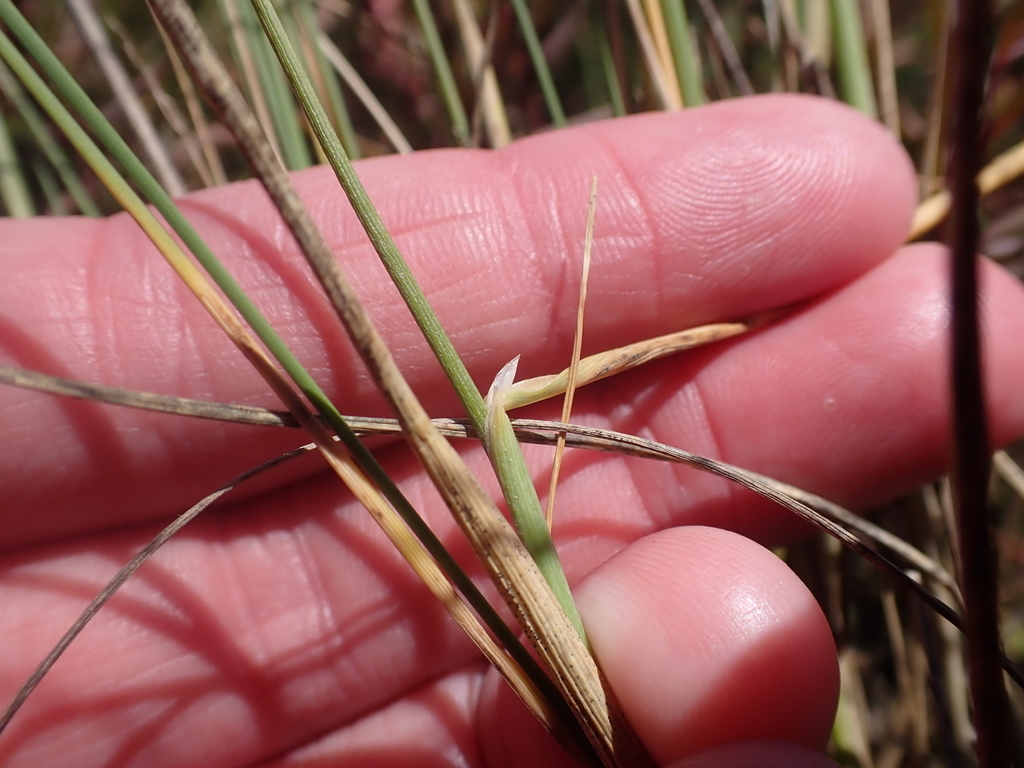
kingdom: Plantae
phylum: Tracheophyta
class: Liliopsida
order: Poales
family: Poaceae
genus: Puccinellia
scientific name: Puccinellia perlaxa
